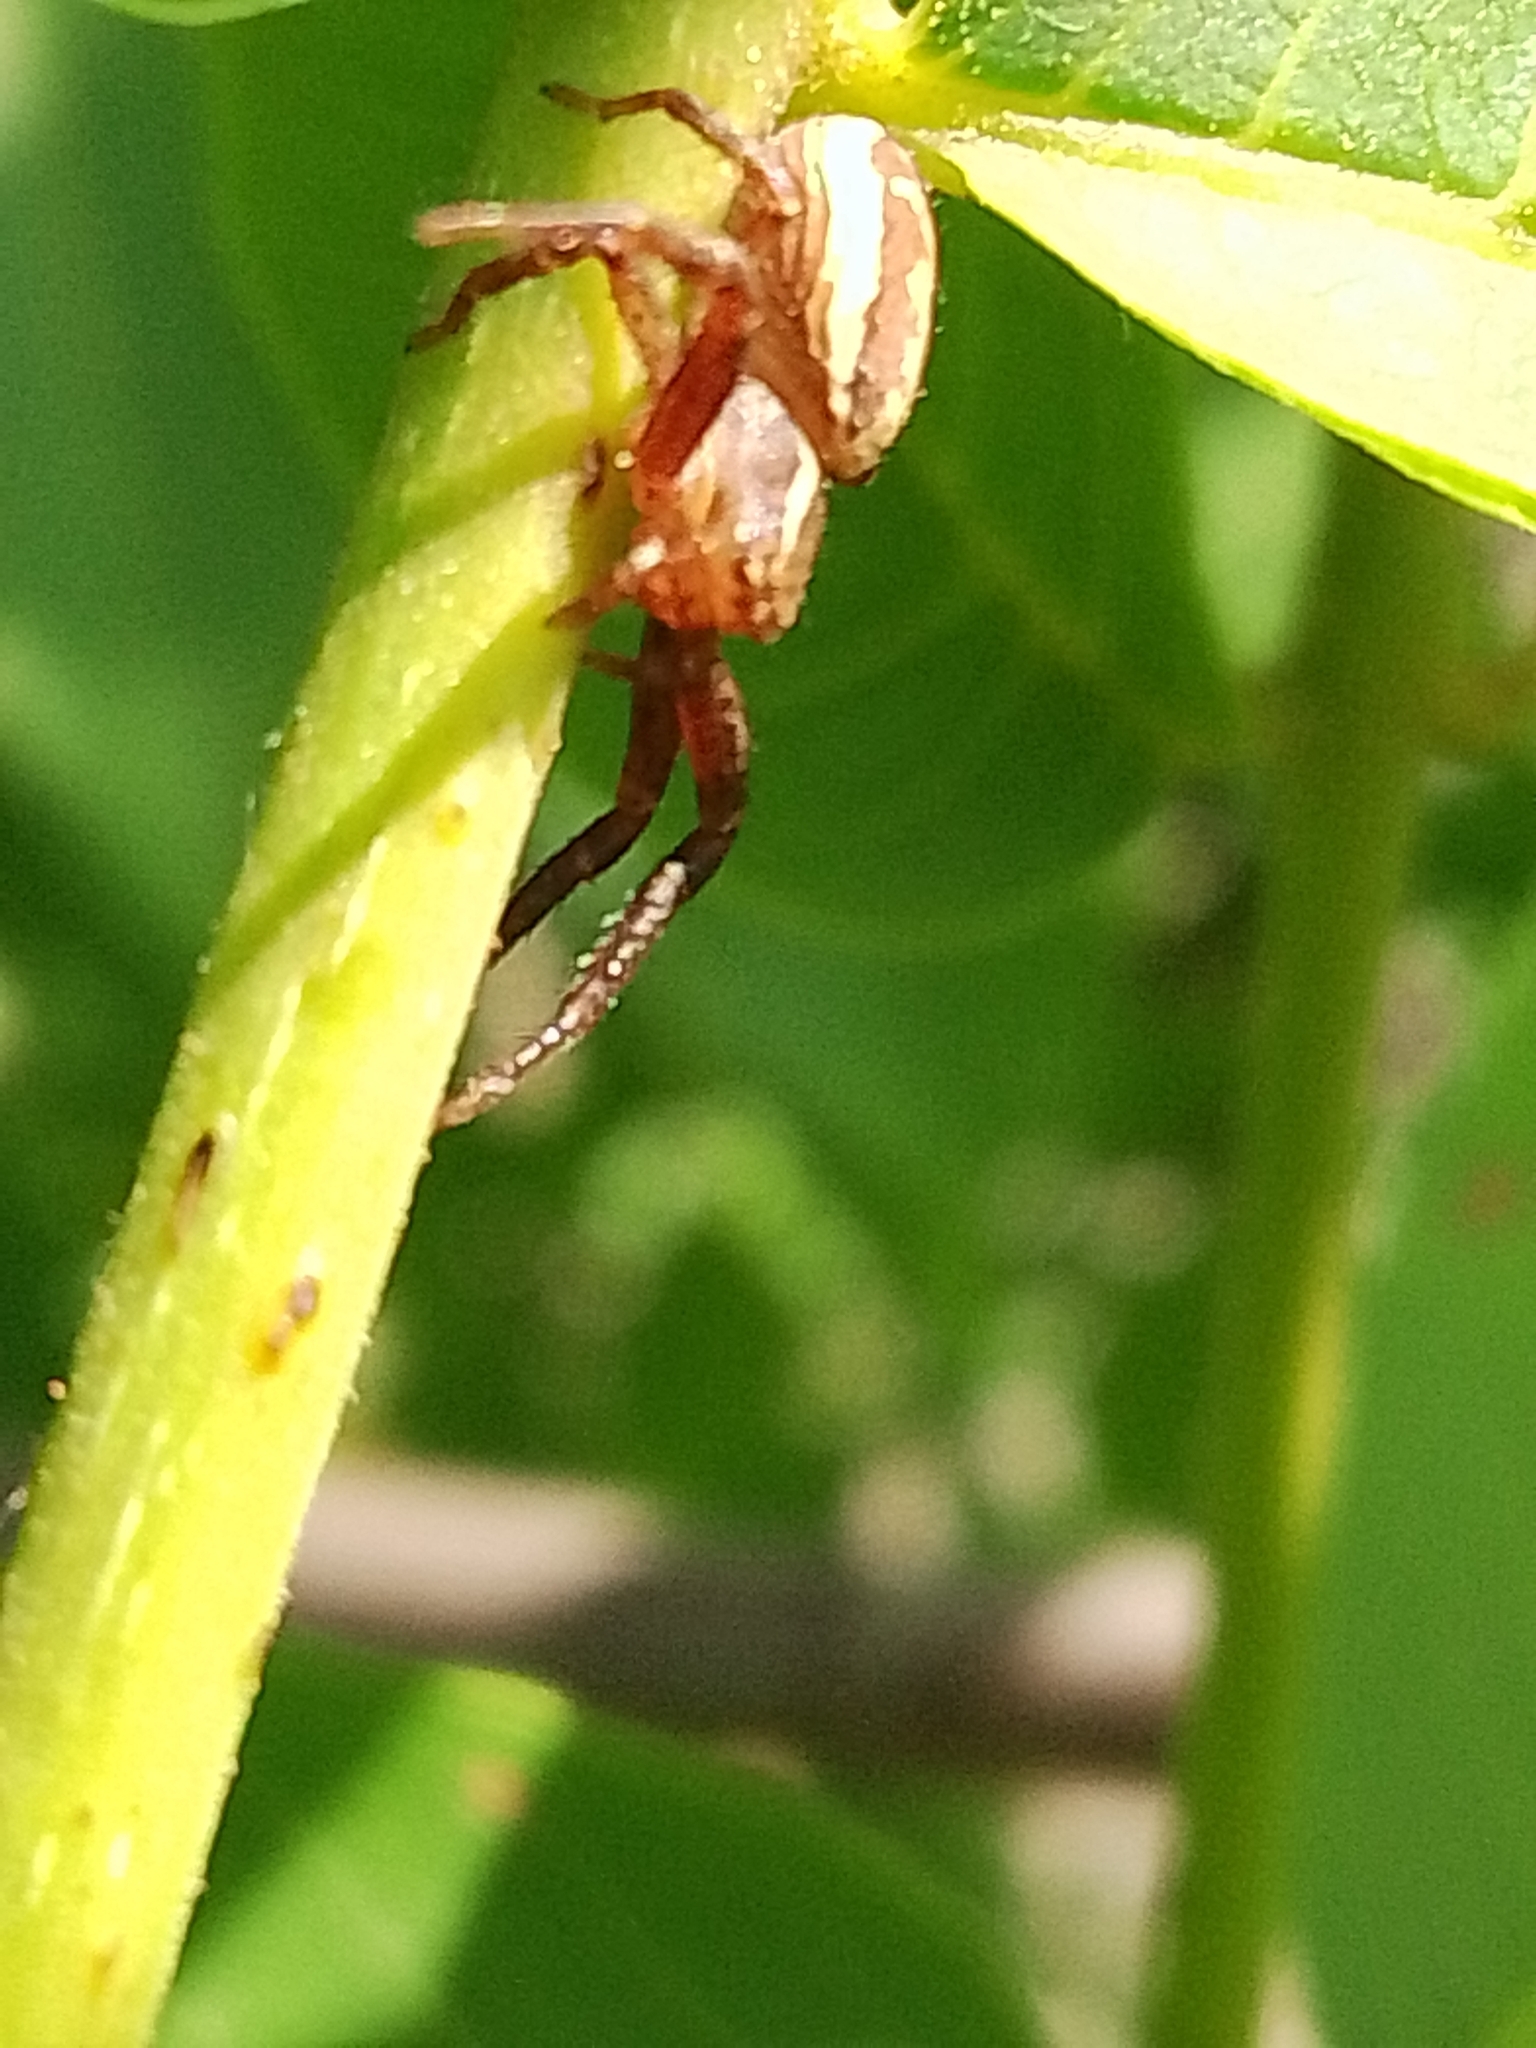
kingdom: Animalia
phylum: Arthropoda
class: Arachnida
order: Araneae
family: Thomisidae
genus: Xysticus
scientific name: Xysticus ulmi
